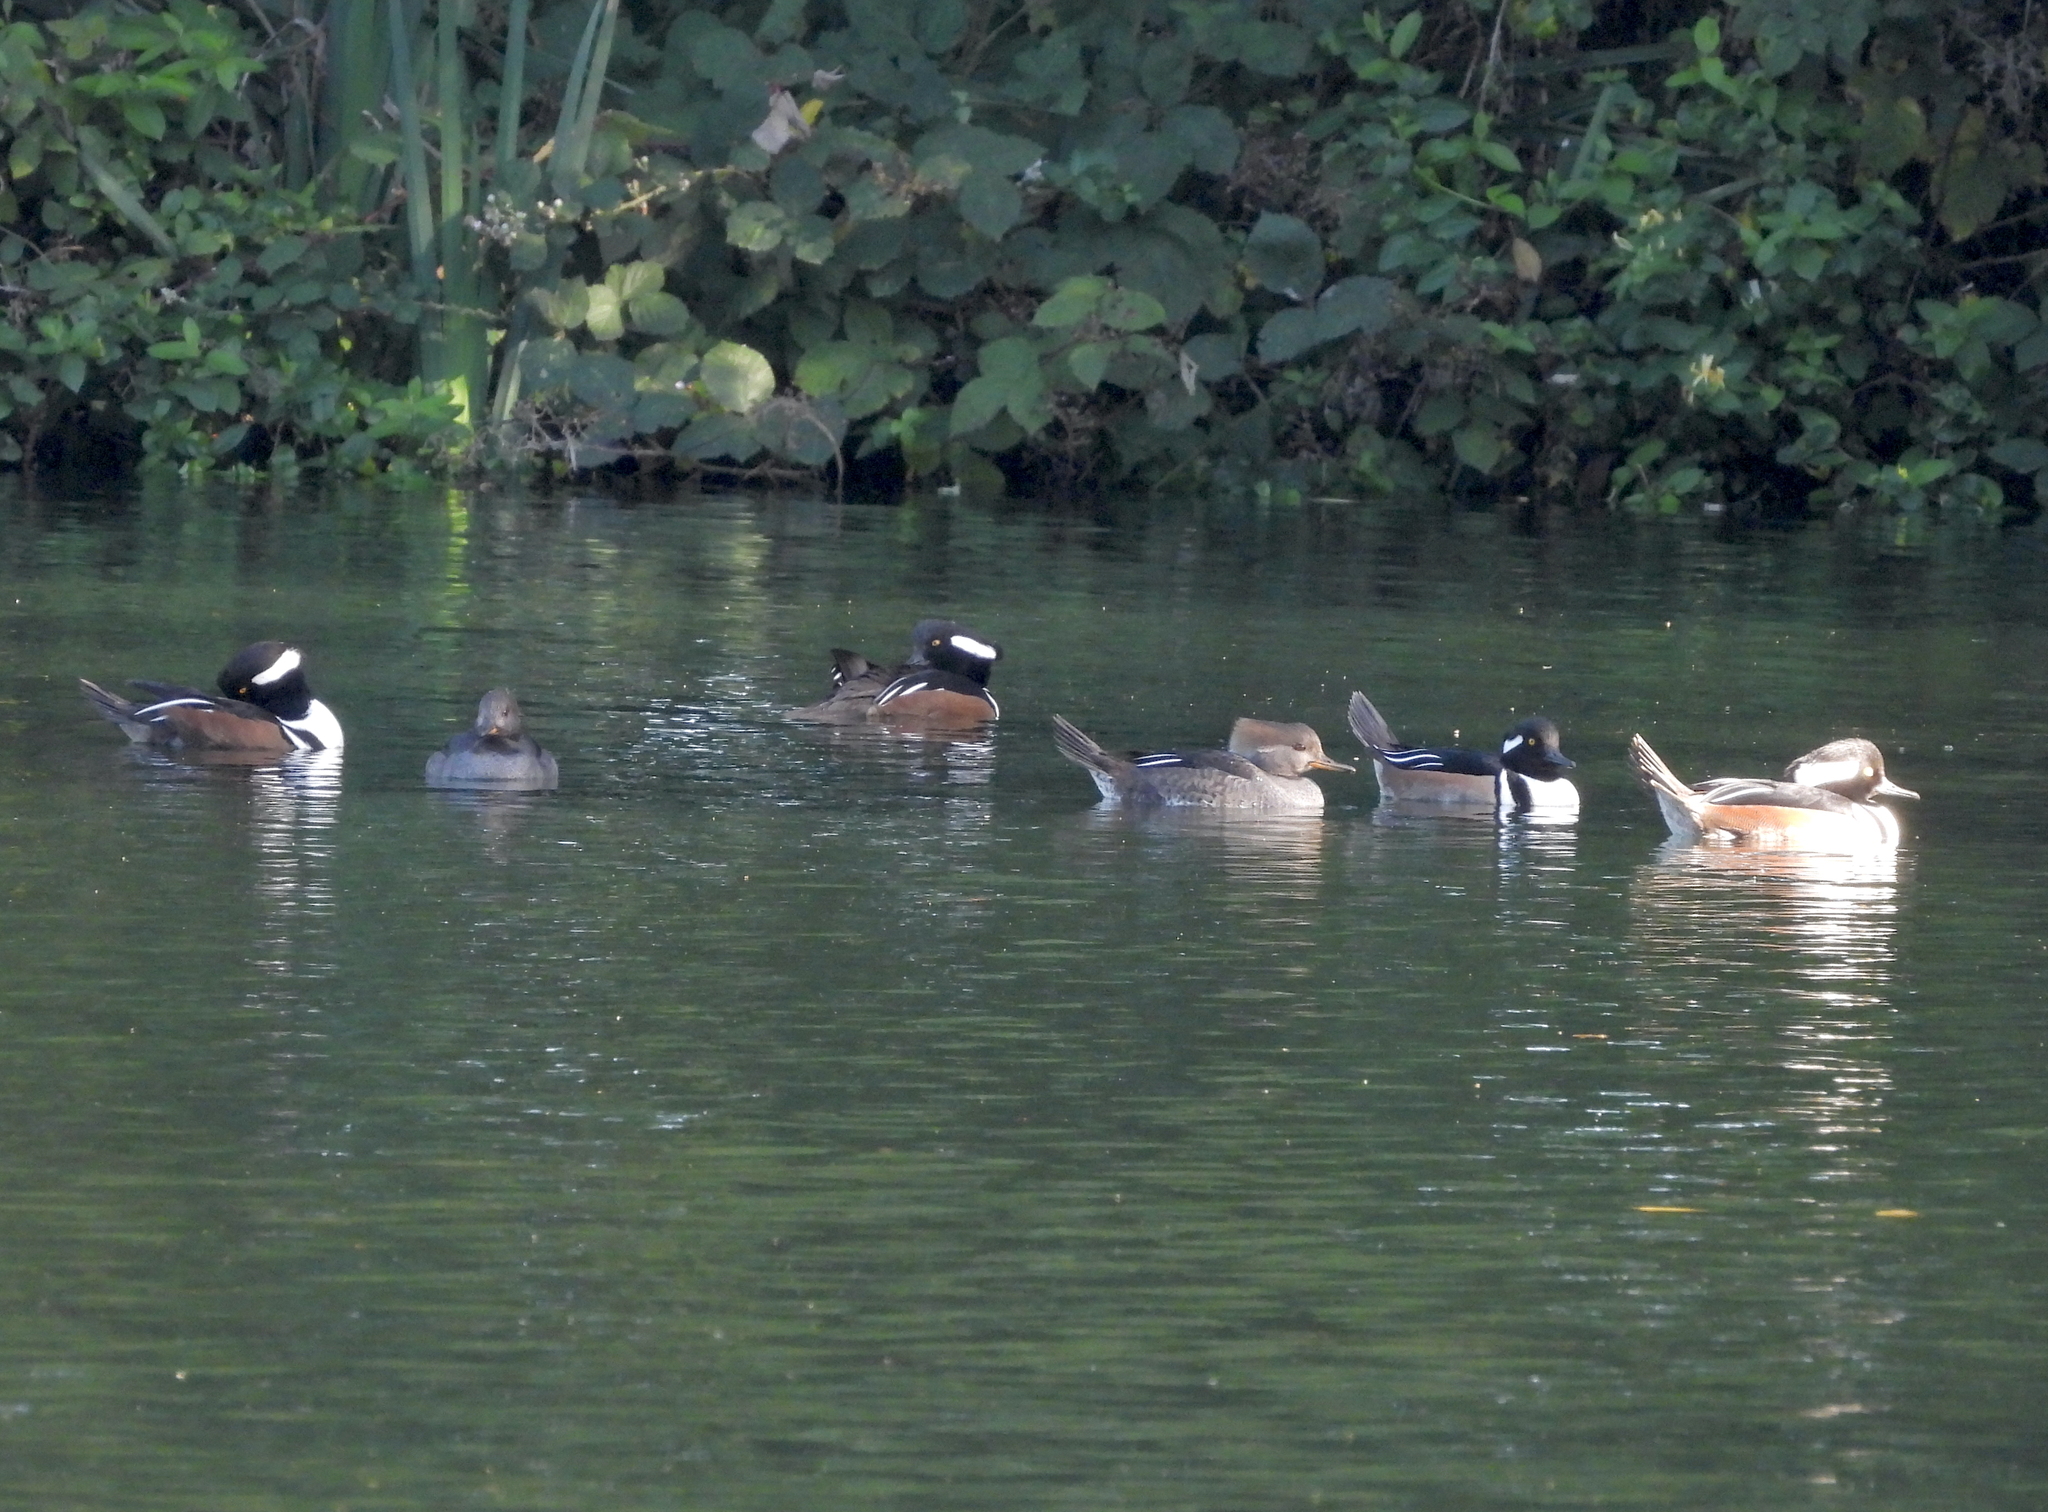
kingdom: Animalia
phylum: Chordata
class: Aves
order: Anseriformes
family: Anatidae
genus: Lophodytes
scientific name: Lophodytes cucullatus
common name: Hooded merganser
